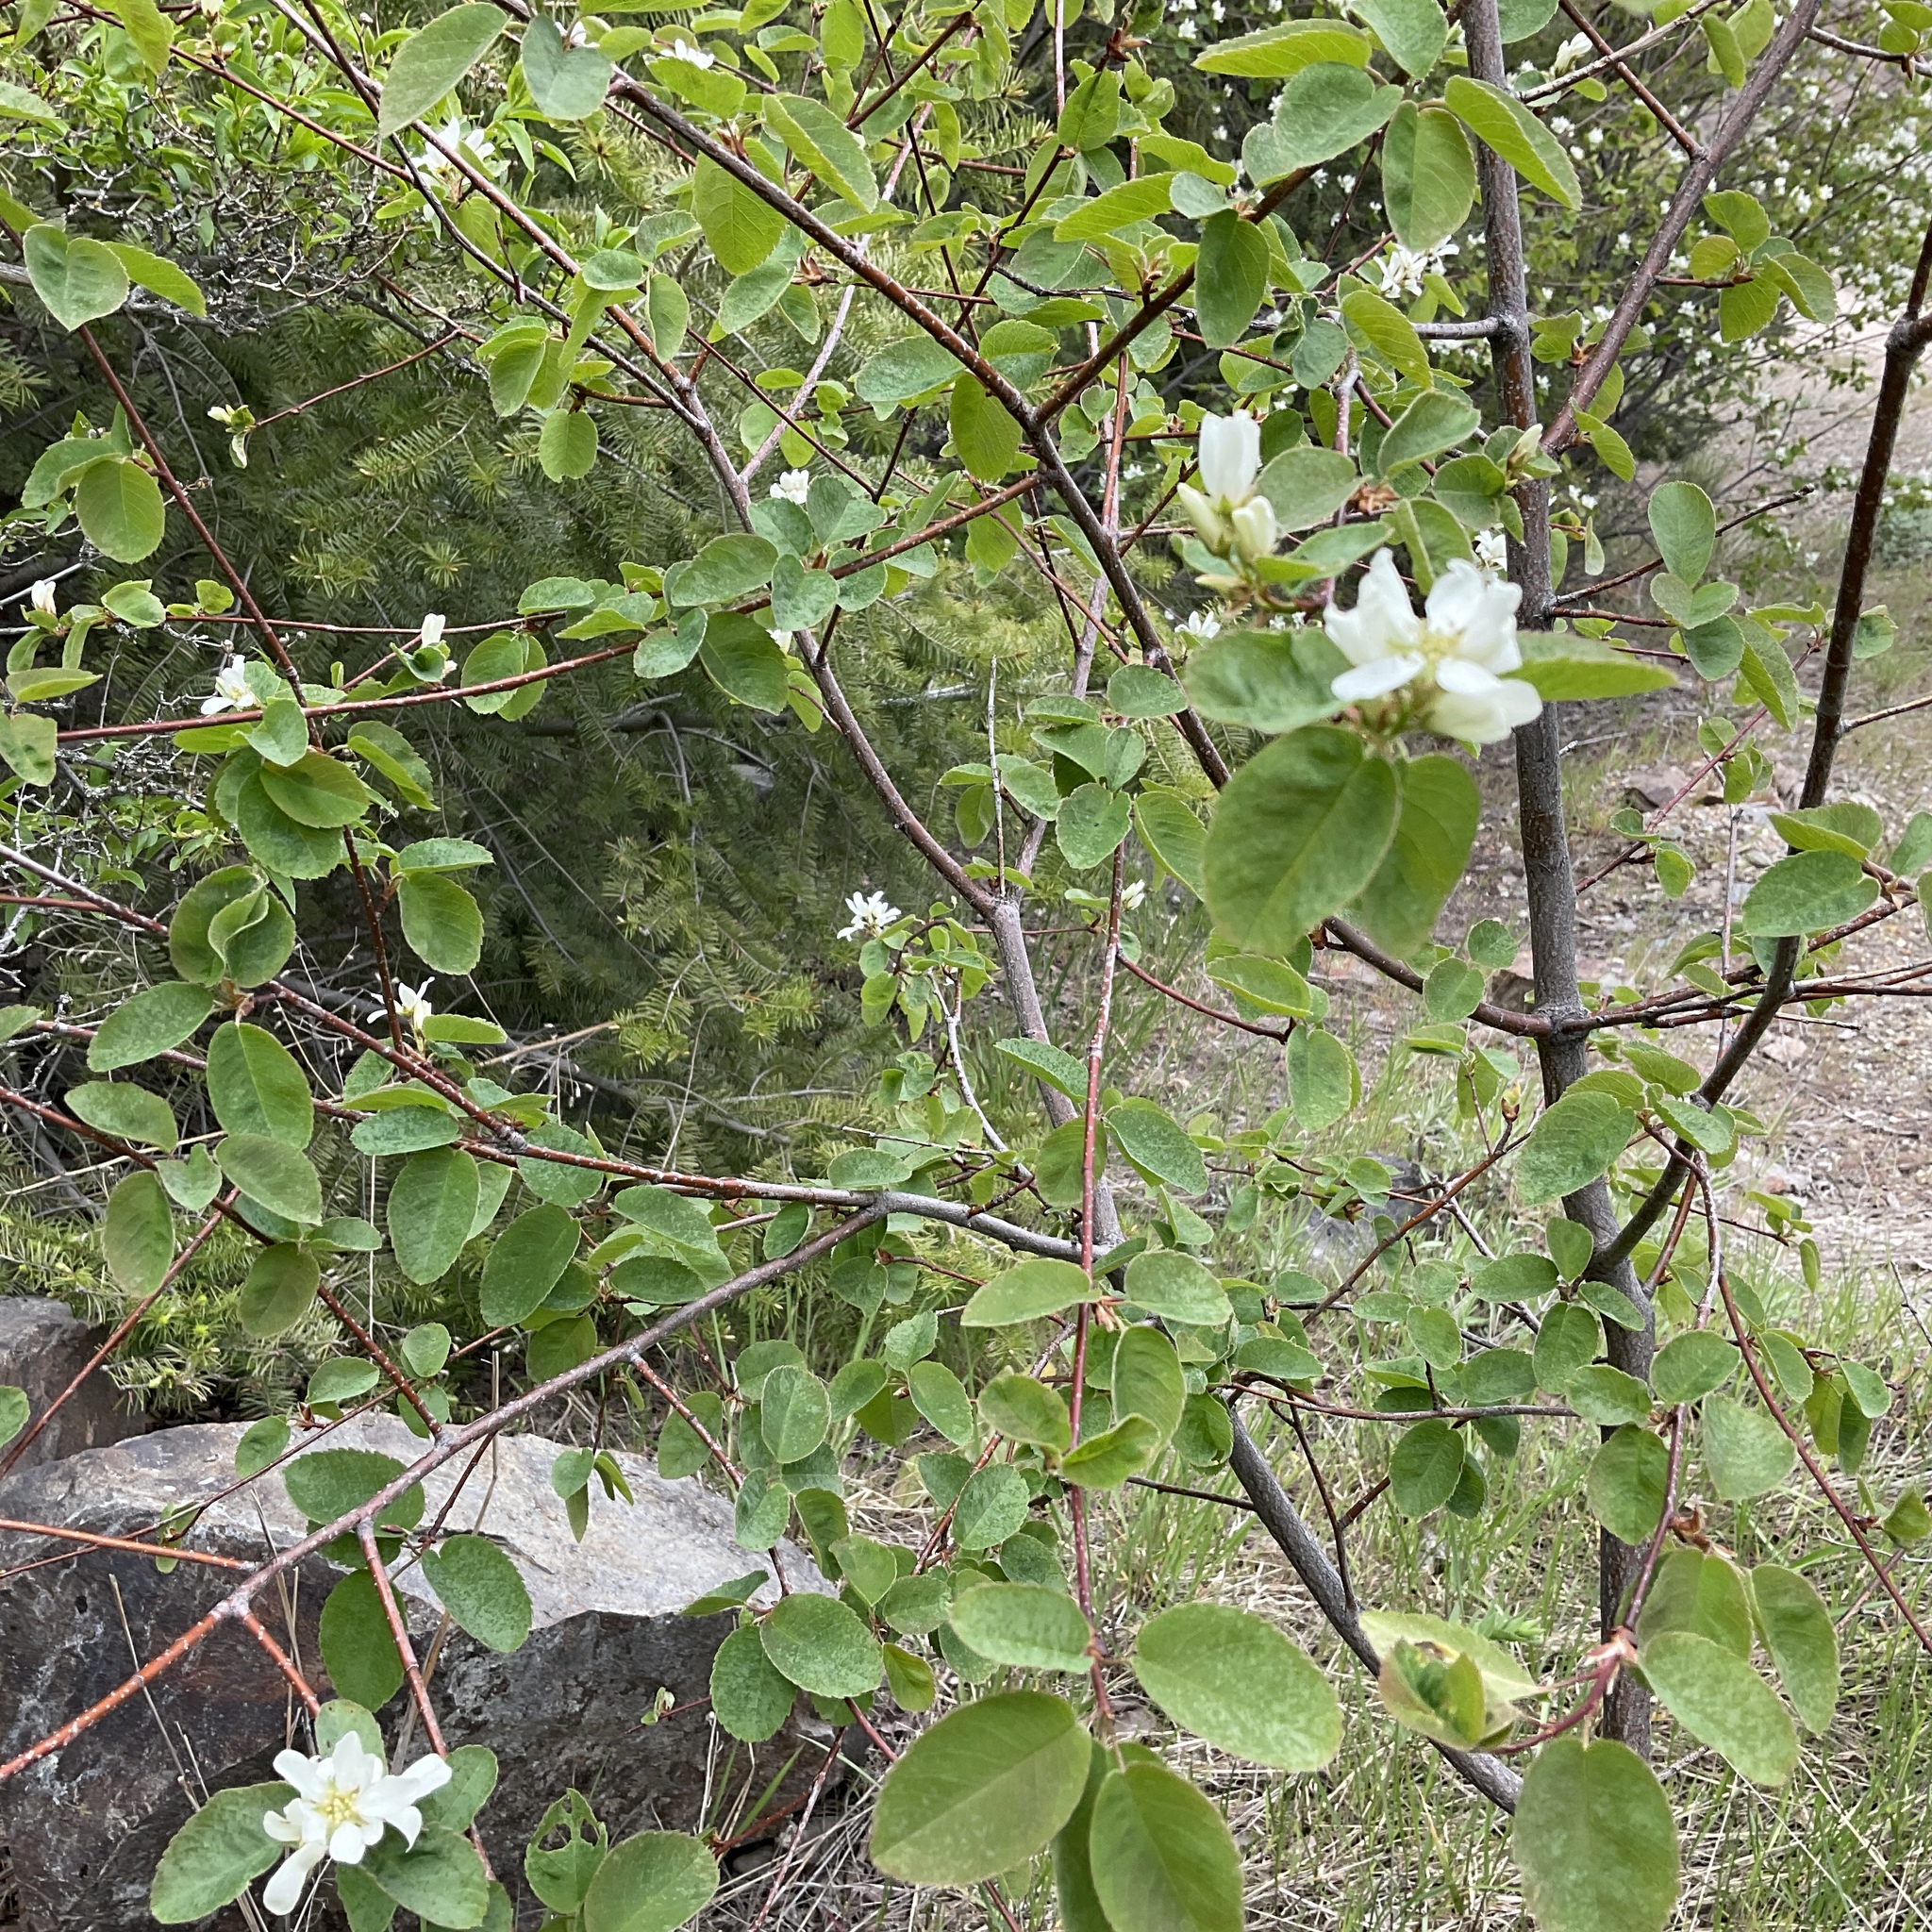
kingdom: Plantae
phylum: Tracheophyta
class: Magnoliopsida
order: Rosales
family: Rosaceae
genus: Amelanchier
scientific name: Amelanchier alnifolia
